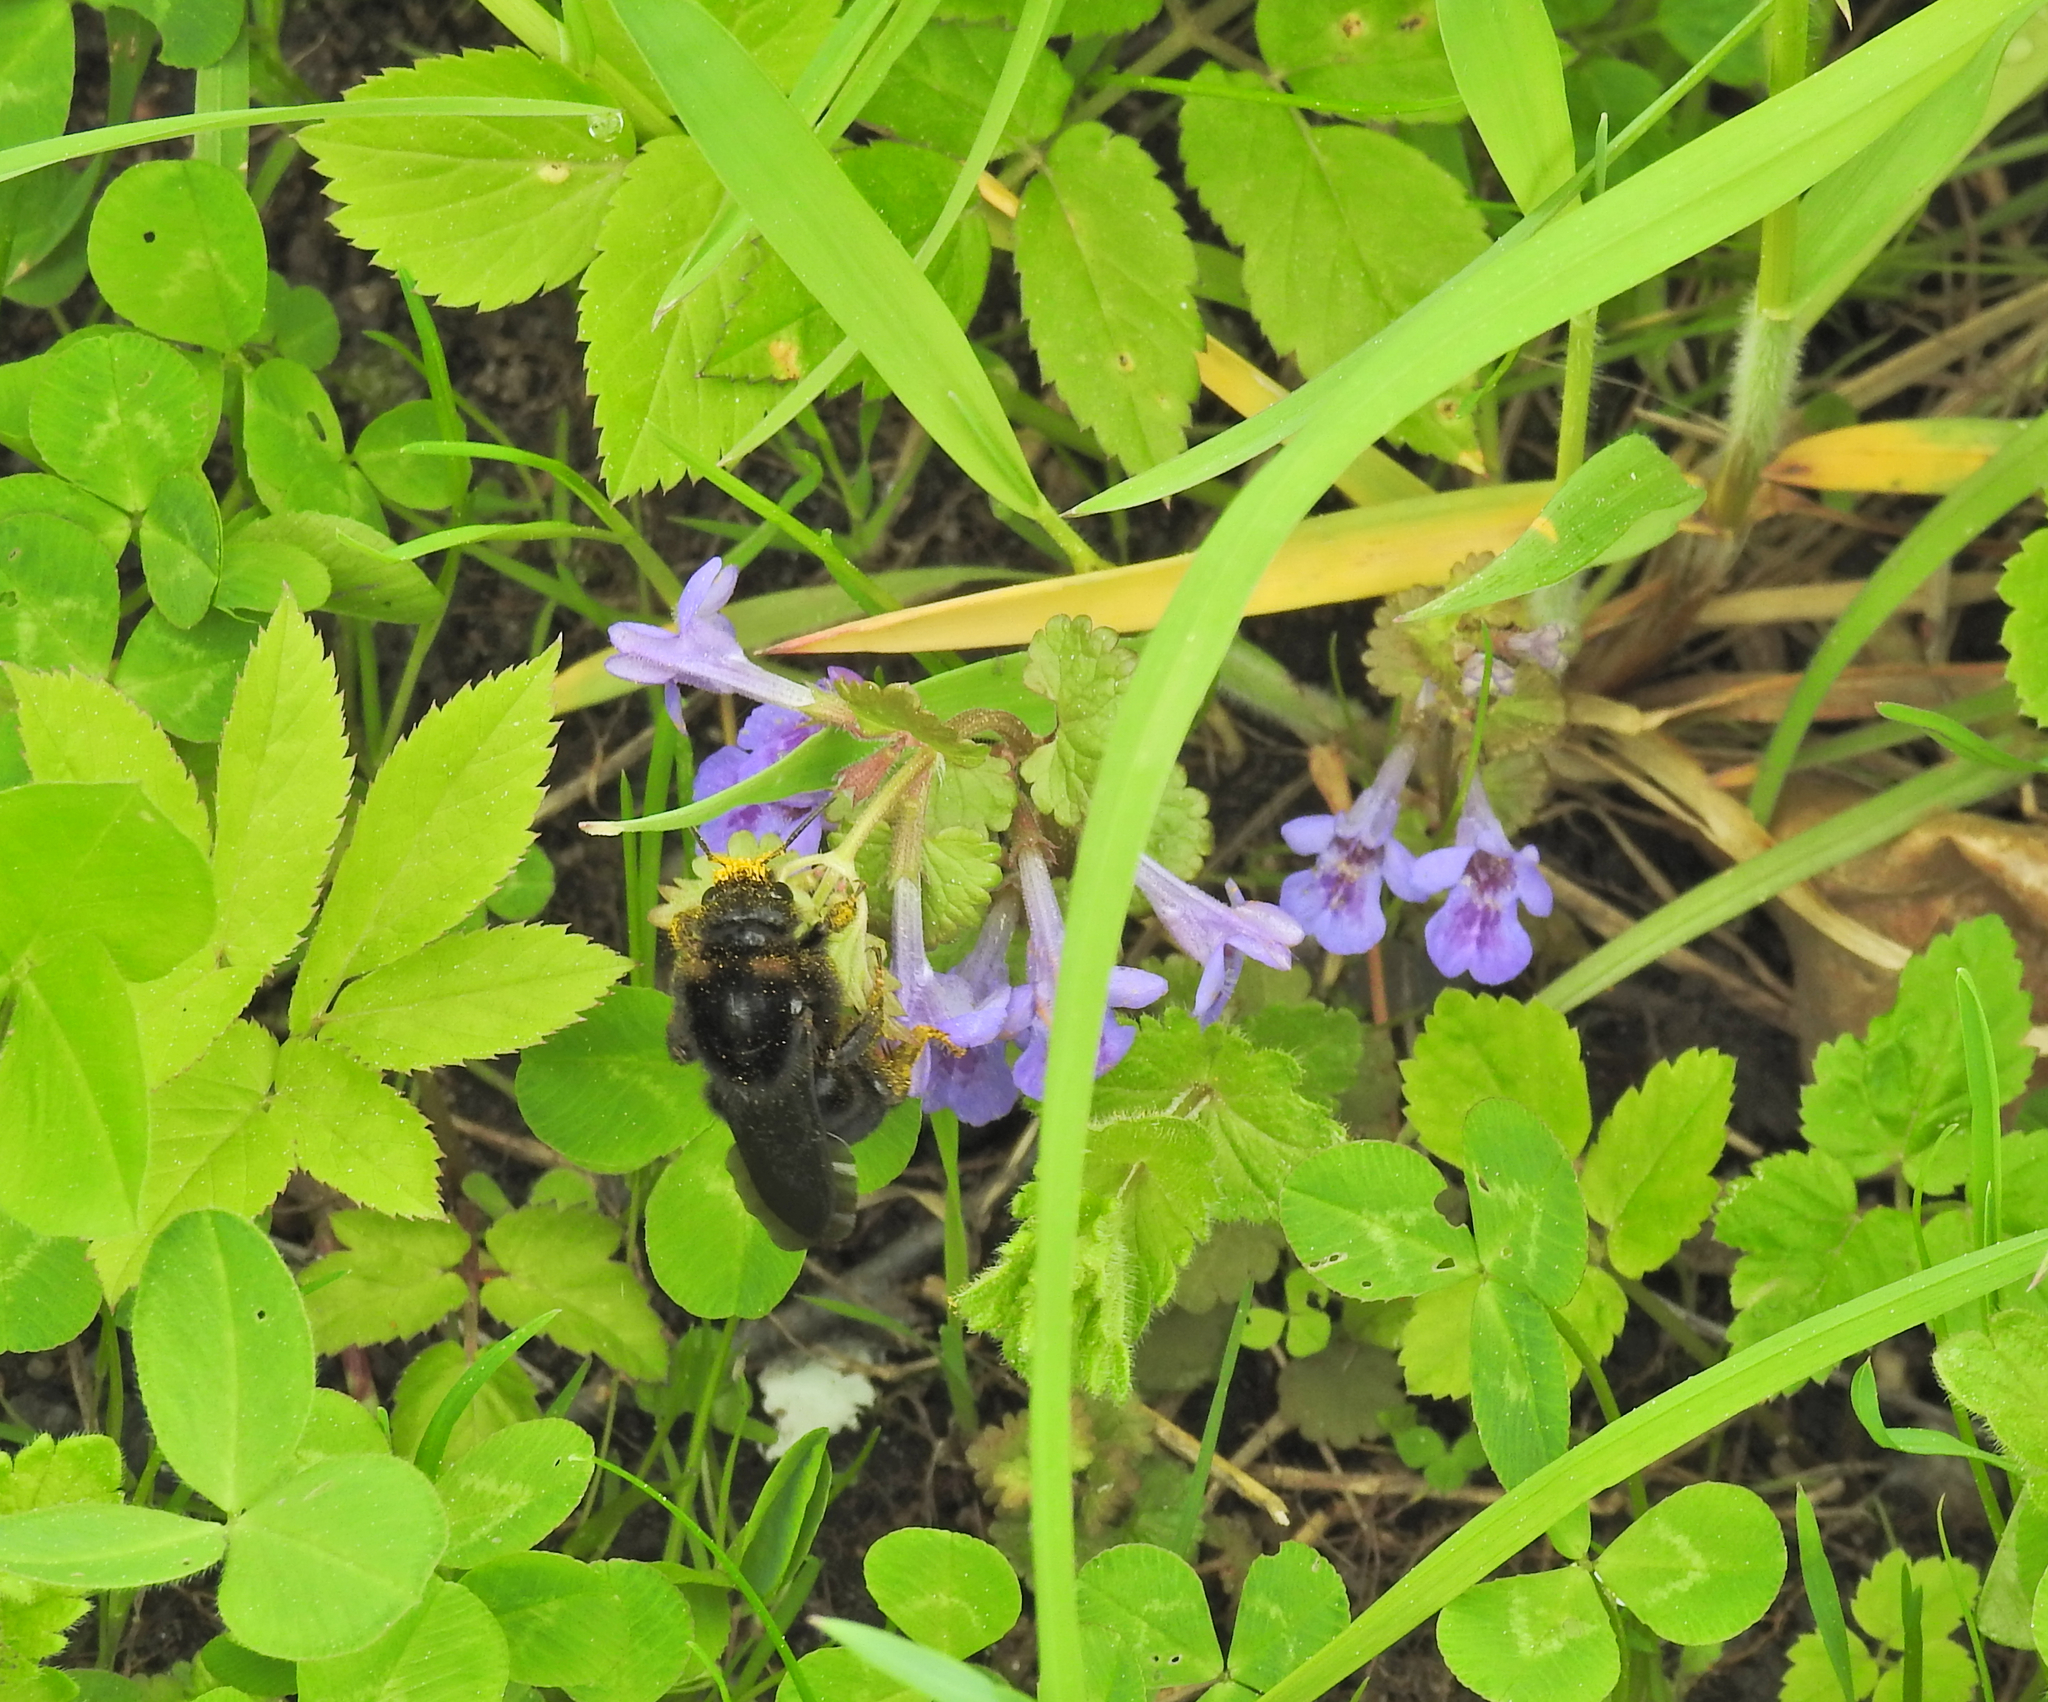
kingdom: Animalia
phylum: Arthropoda
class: Insecta
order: Hymenoptera
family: Apidae
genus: Bombus
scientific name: Bombus rupestris
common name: Hill cuckoo-bee
